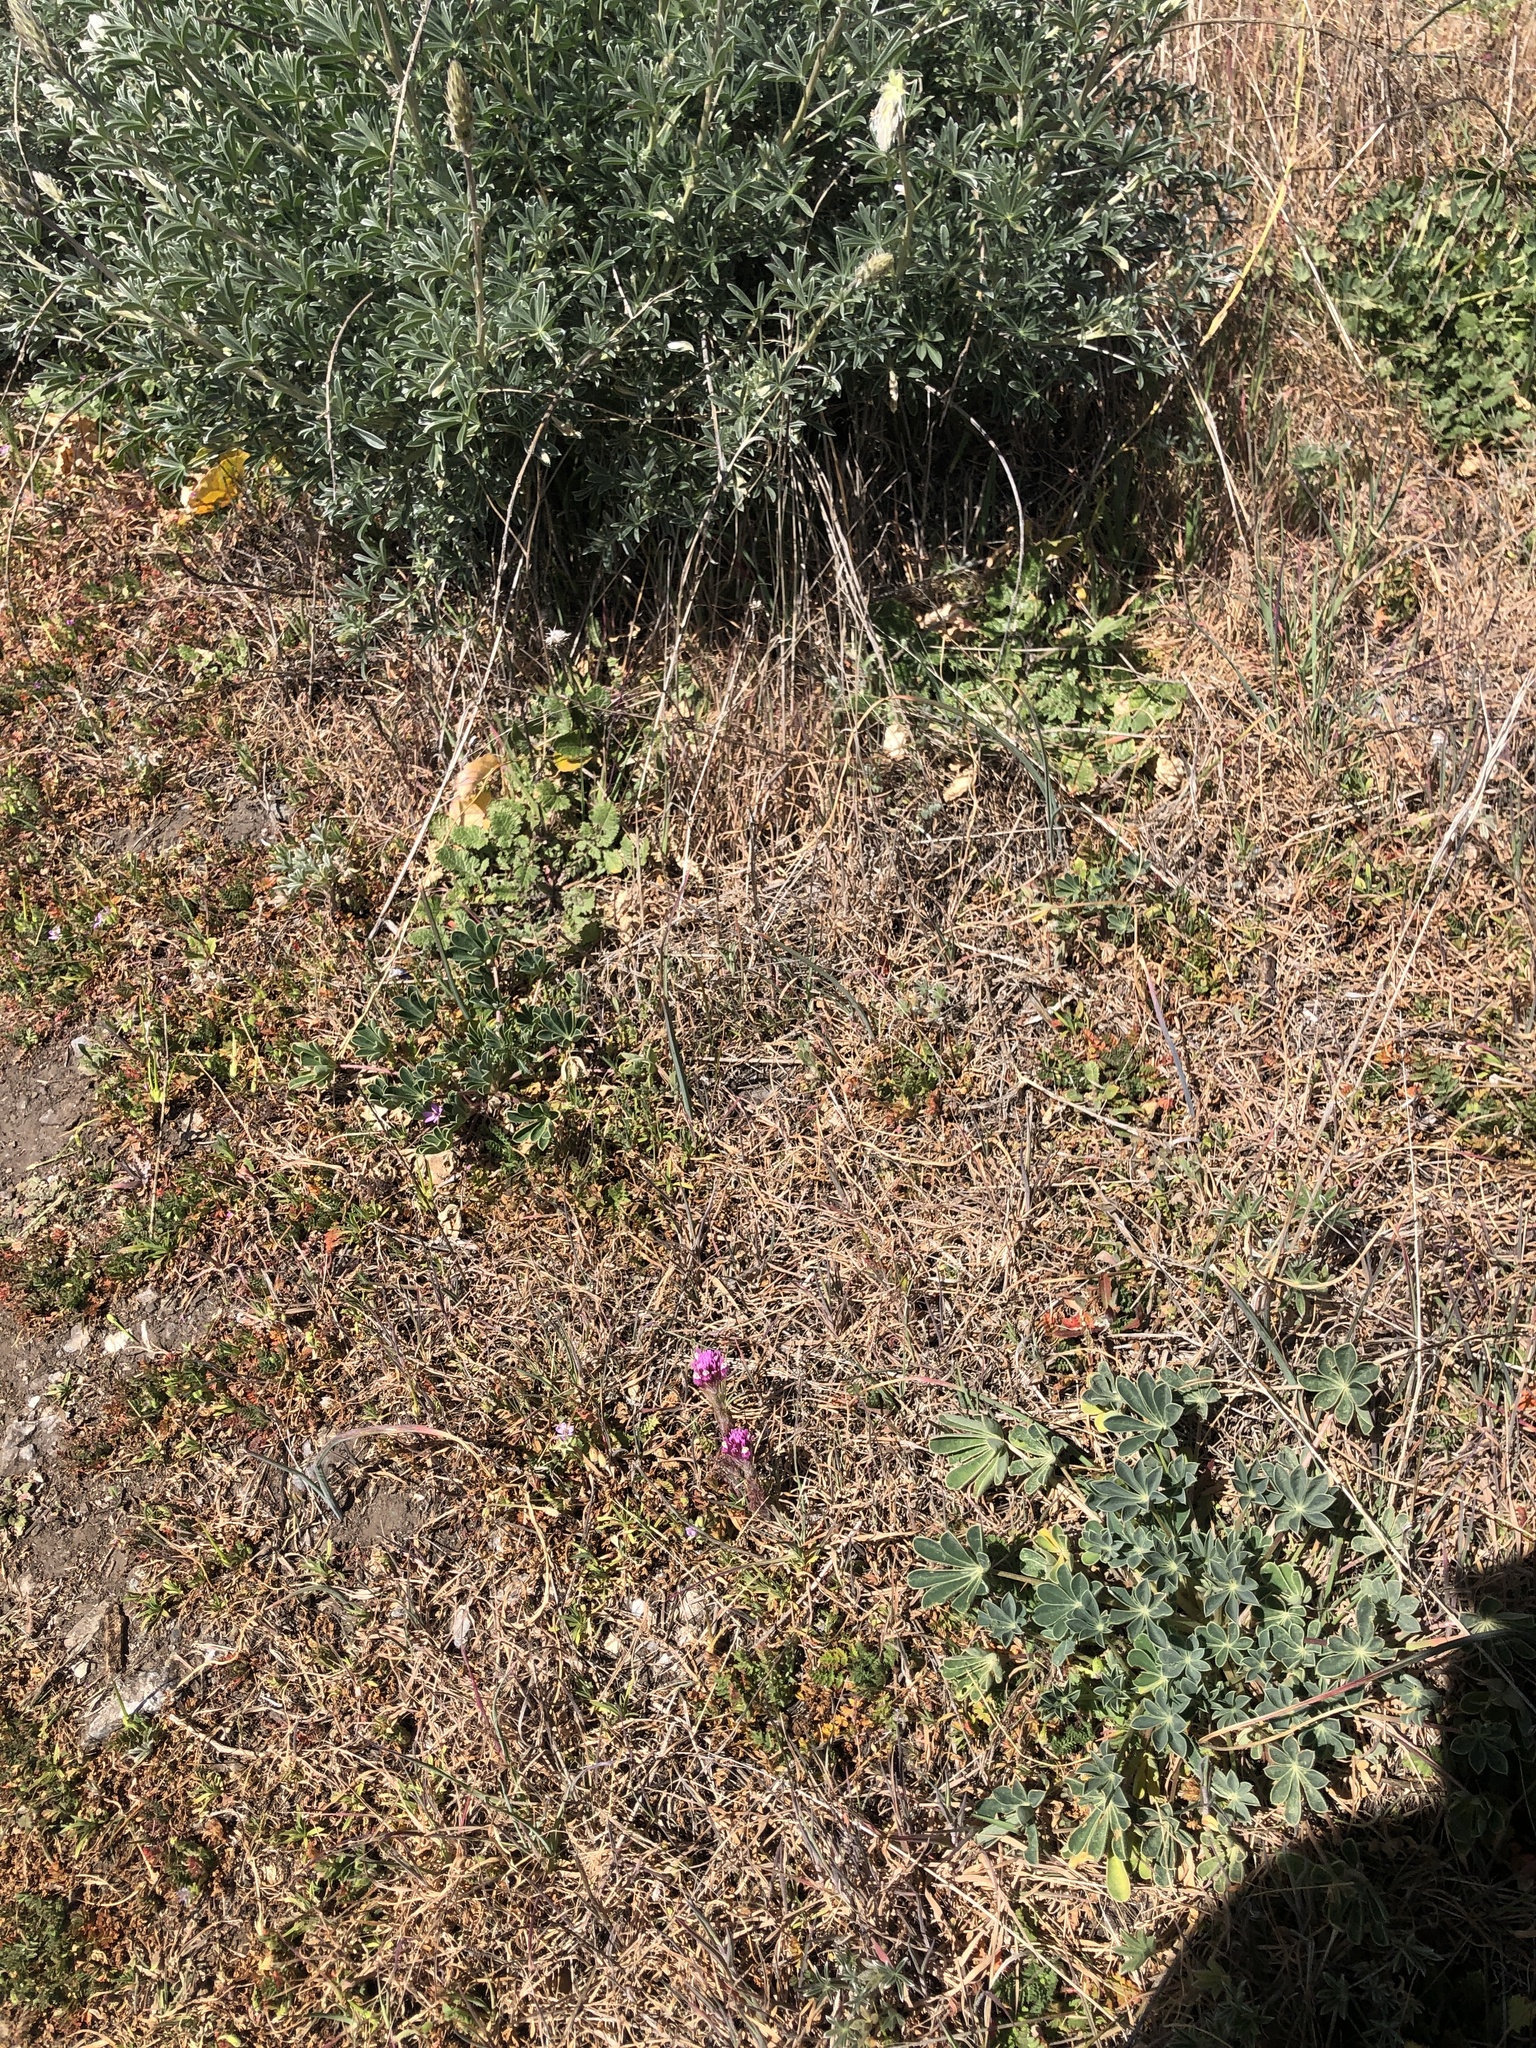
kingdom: Plantae
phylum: Tracheophyta
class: Magnoliopsida
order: Lamiales
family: Orobanchaceae
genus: Castilleja
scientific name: Castilleja exserta
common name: Purple owl-clover
